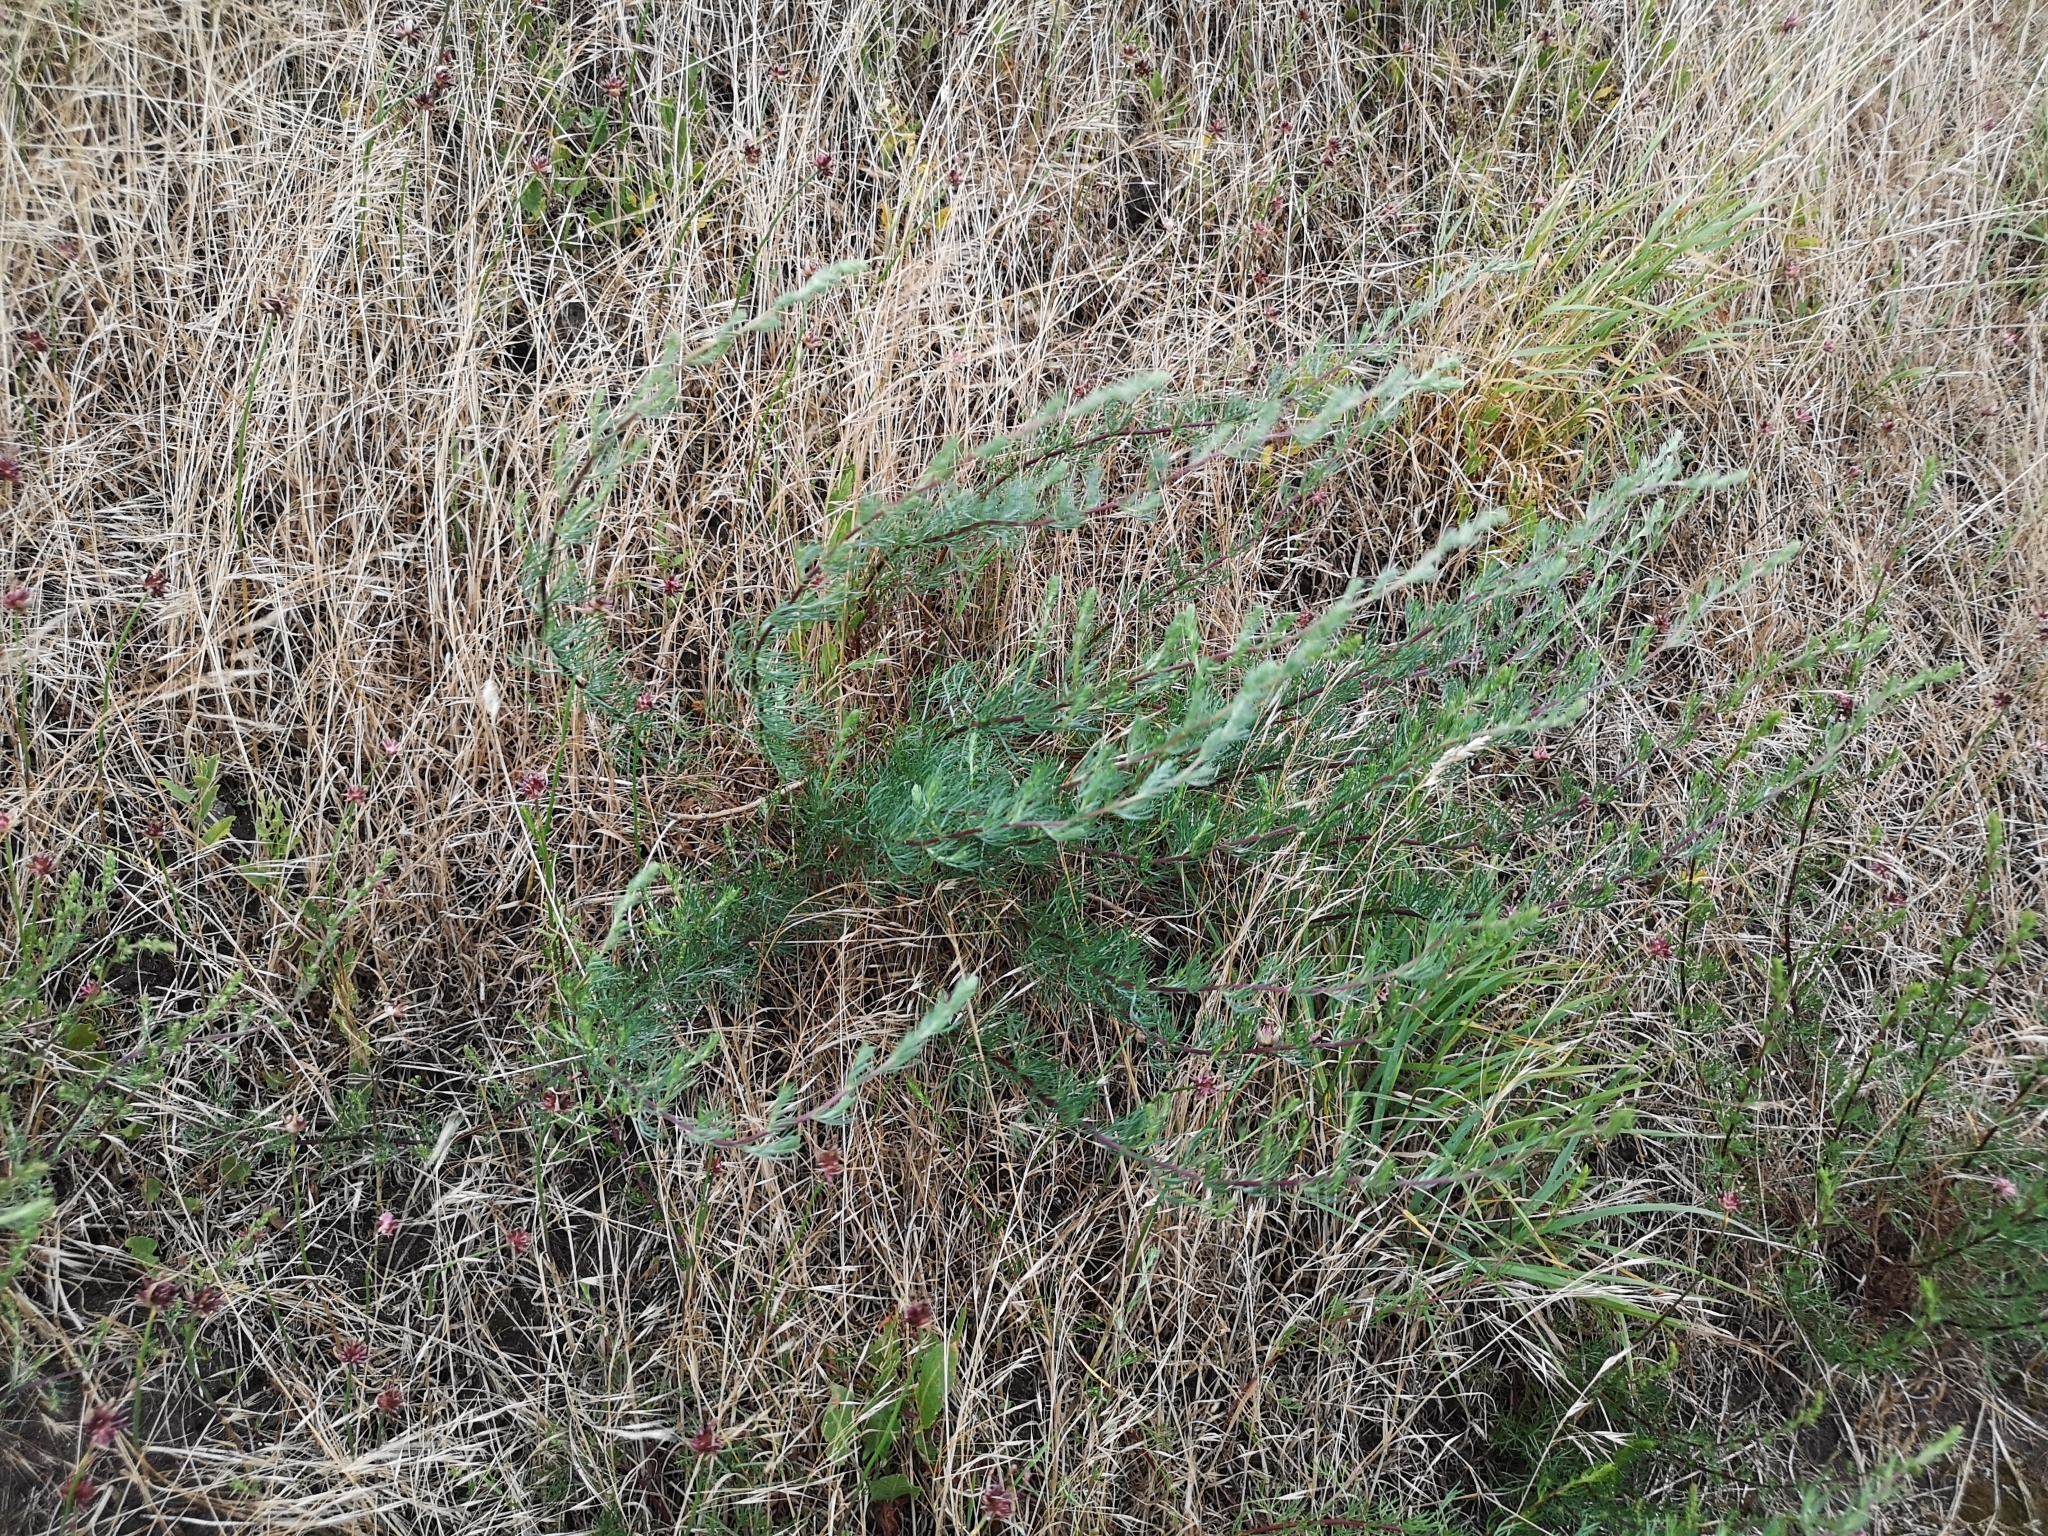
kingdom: Plantae
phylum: Tracheophyta
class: Magnoliopsida
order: Asterales
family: Asteraceae
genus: Artemisia
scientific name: Artemisia campestris
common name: Field wormwood
